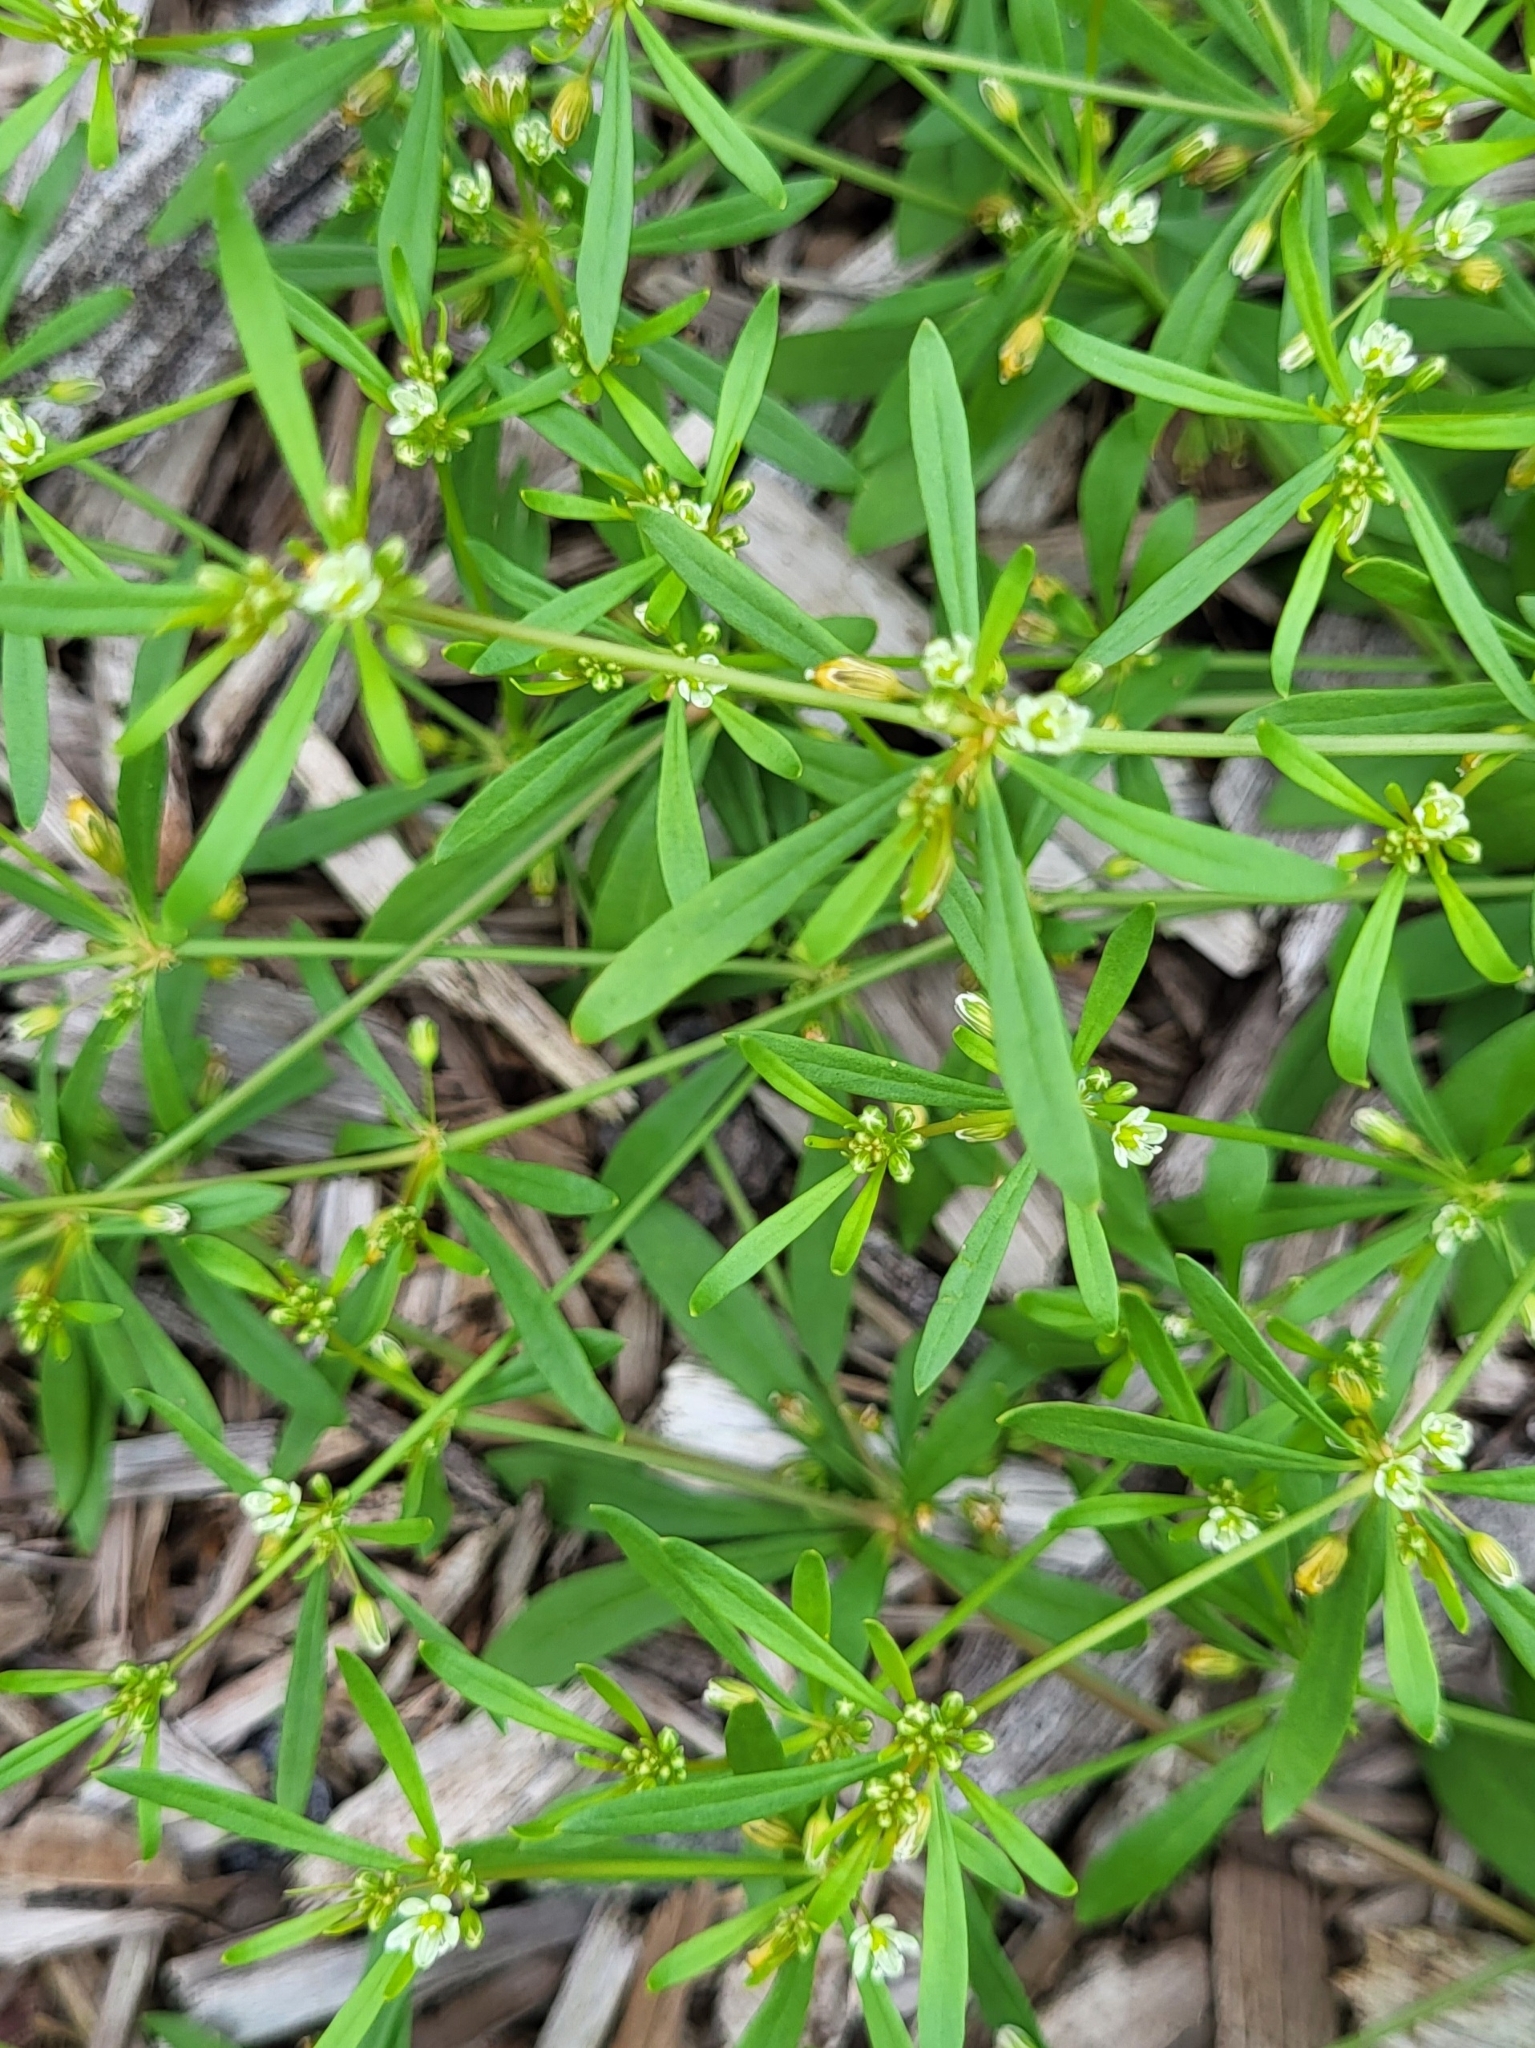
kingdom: Plantae
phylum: Tracheophyta
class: Magnoliopsida
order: Caryophyllales
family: Molluginaceae
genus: Mollugo
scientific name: Mollugo verticillata
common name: Green carpetweed
